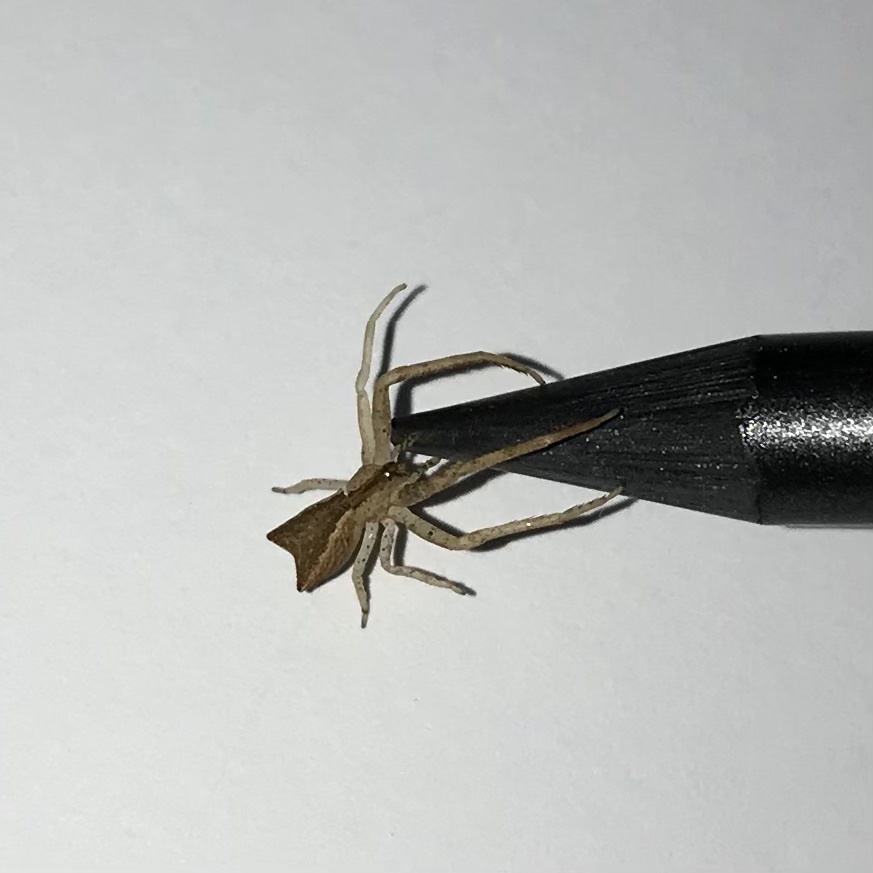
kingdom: Animalia
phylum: Arthropoda
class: Arachnida
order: Araneae
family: Thomisidae
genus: Sidymella
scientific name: Sidymella trapezia
